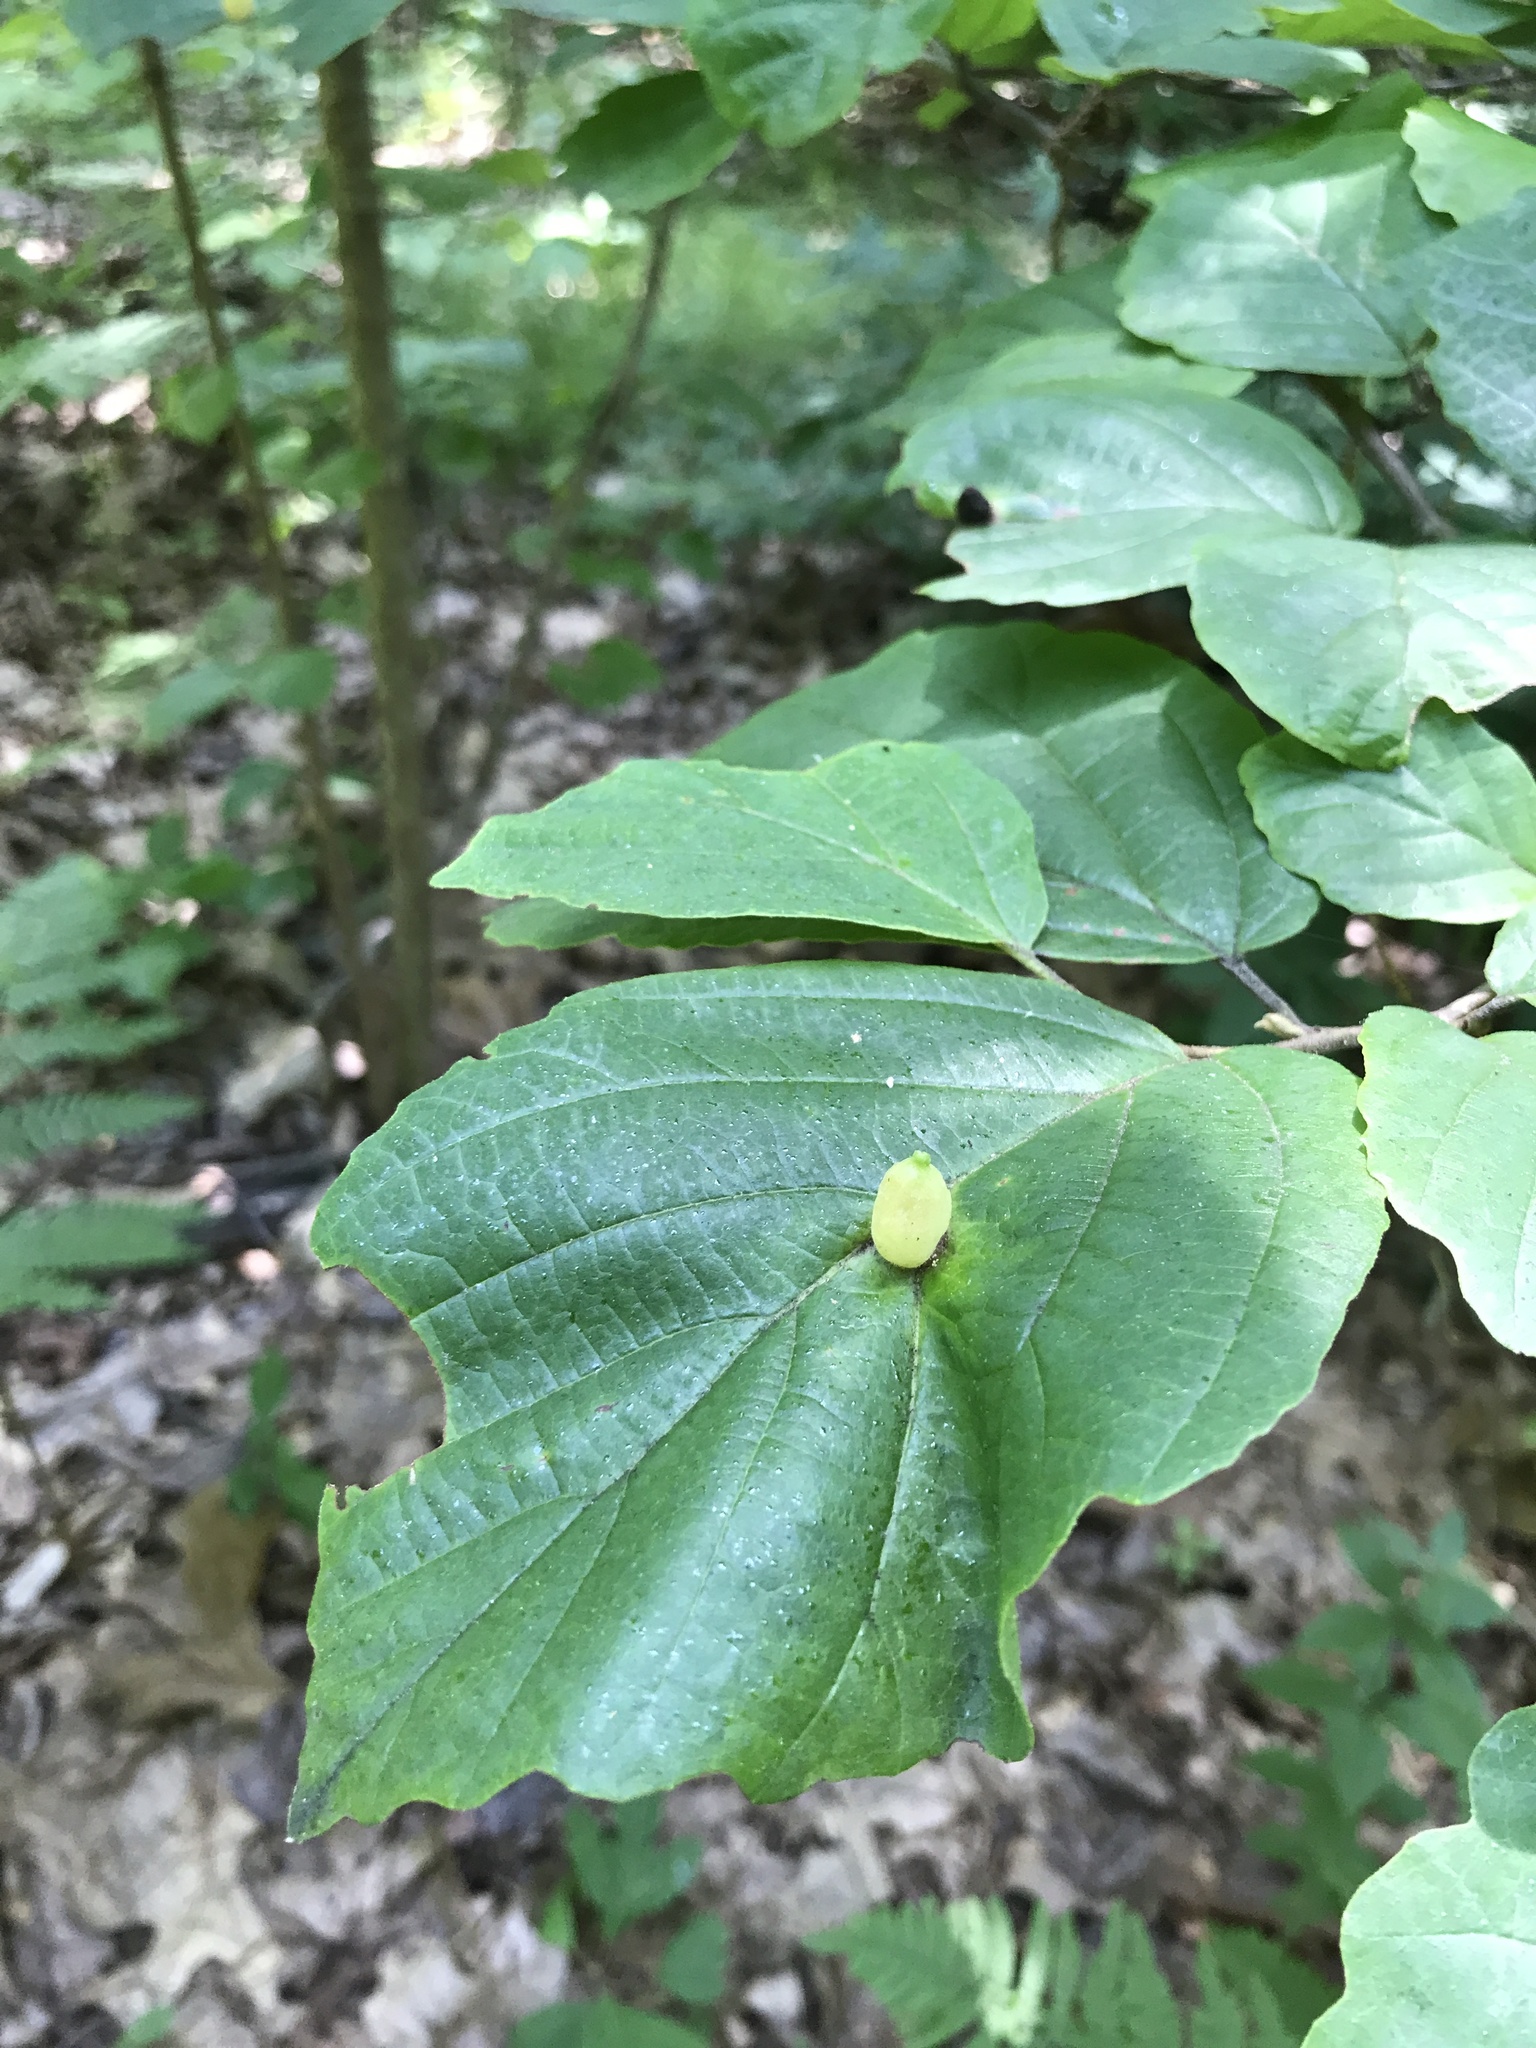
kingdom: Animalia
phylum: Arthropoda
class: Insecta
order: Hemiptera
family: Aphididae
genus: Hormaphis
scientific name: Hormaphis hamamelidis
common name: Witch-hazel cone gall aphid
